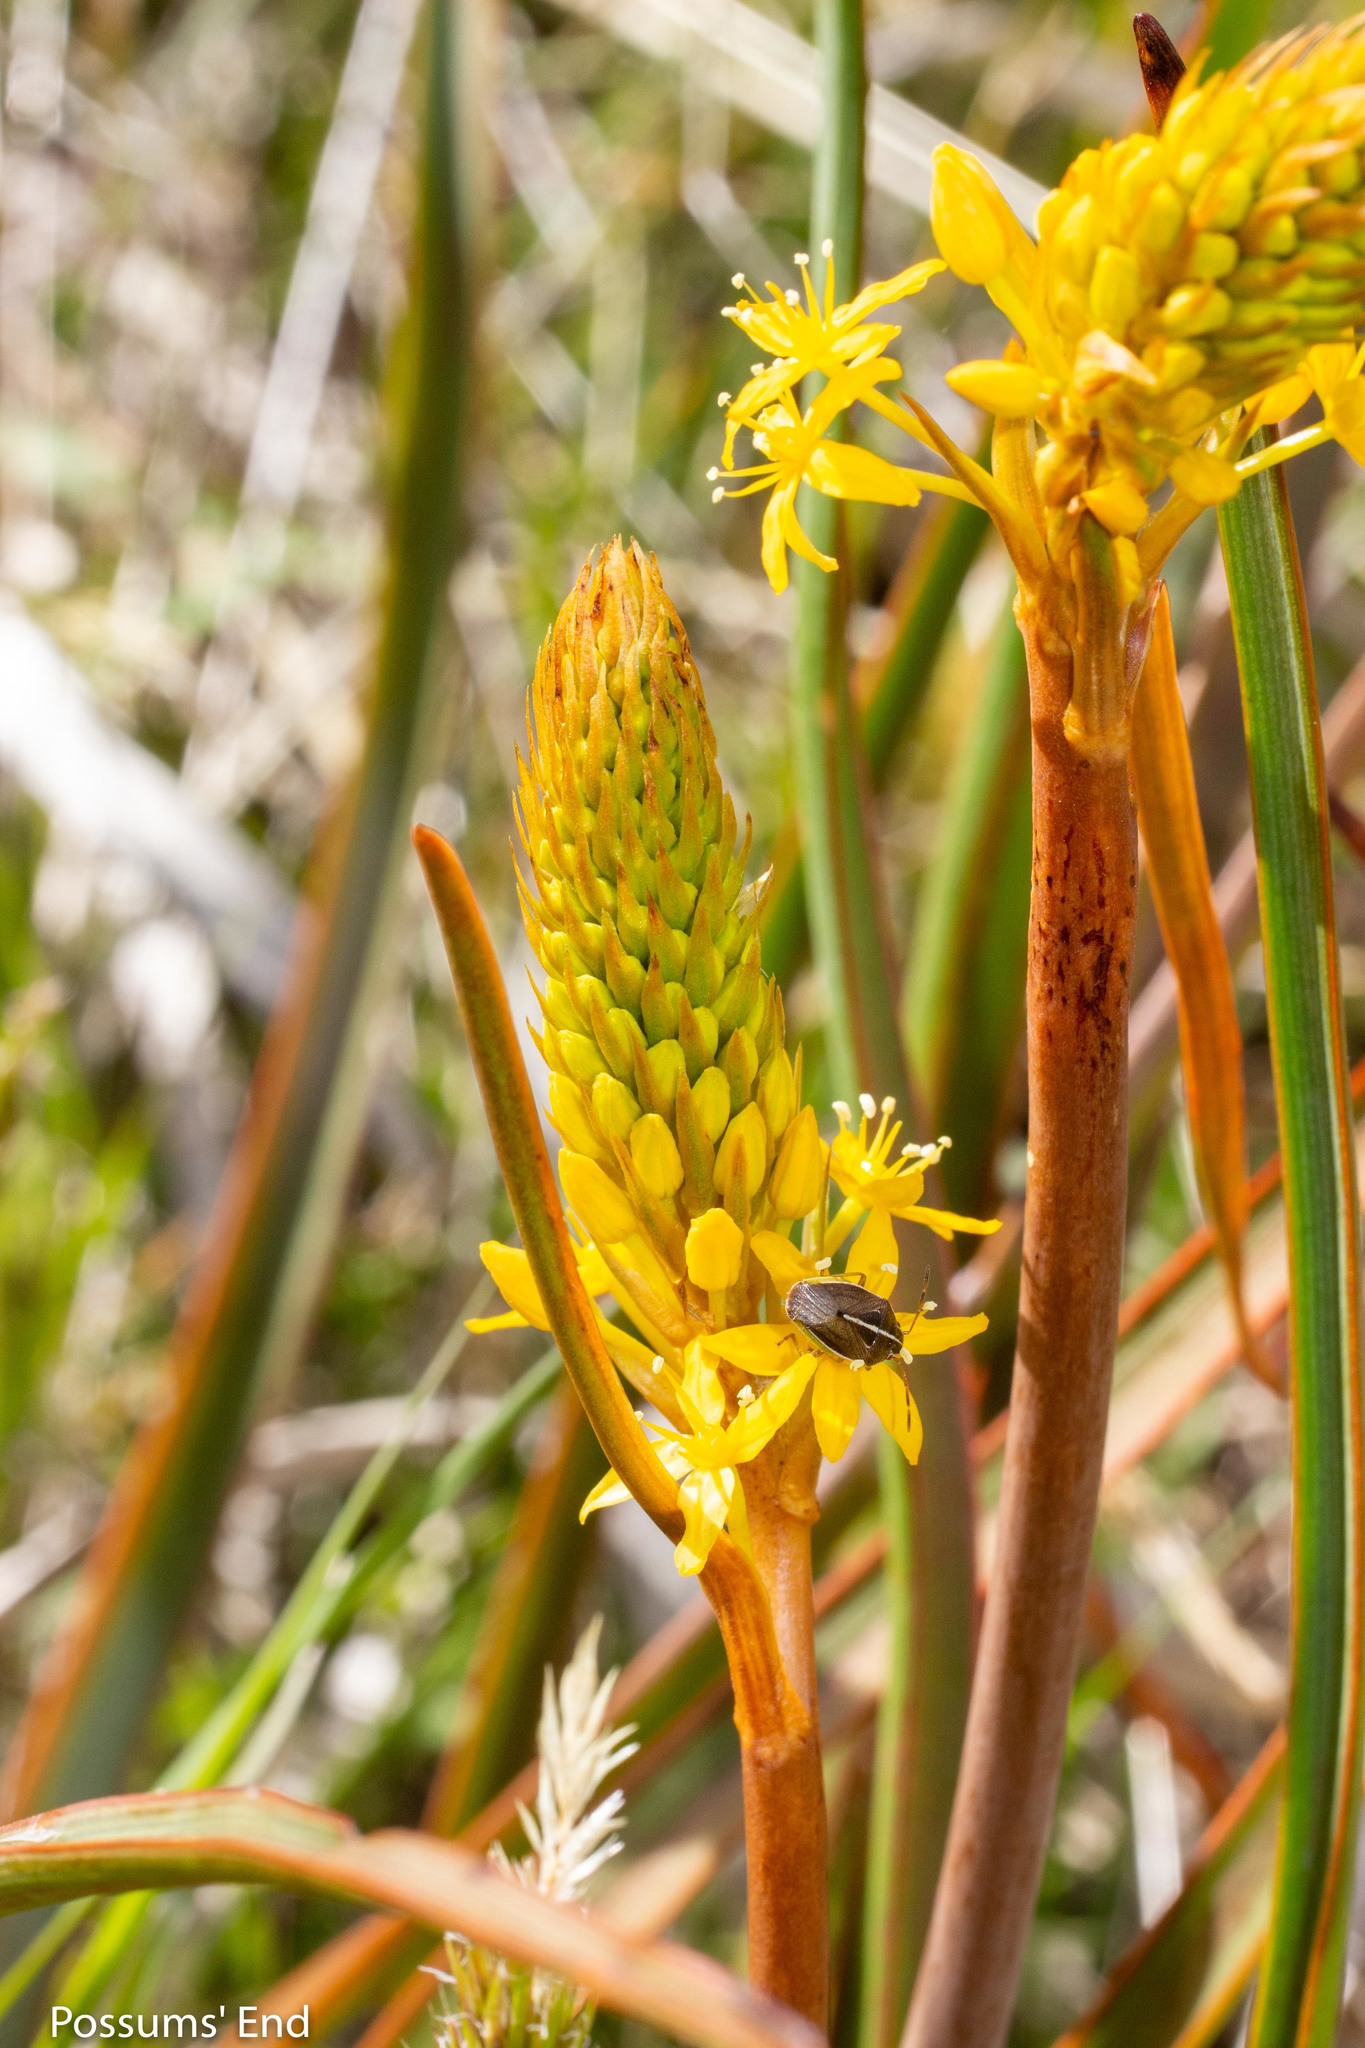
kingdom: Plantae
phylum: Tracheophyta
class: Liliopsida
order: Asparagales
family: Asphodelaceae
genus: Bulbinella
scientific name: Bulbinella angustifolia
